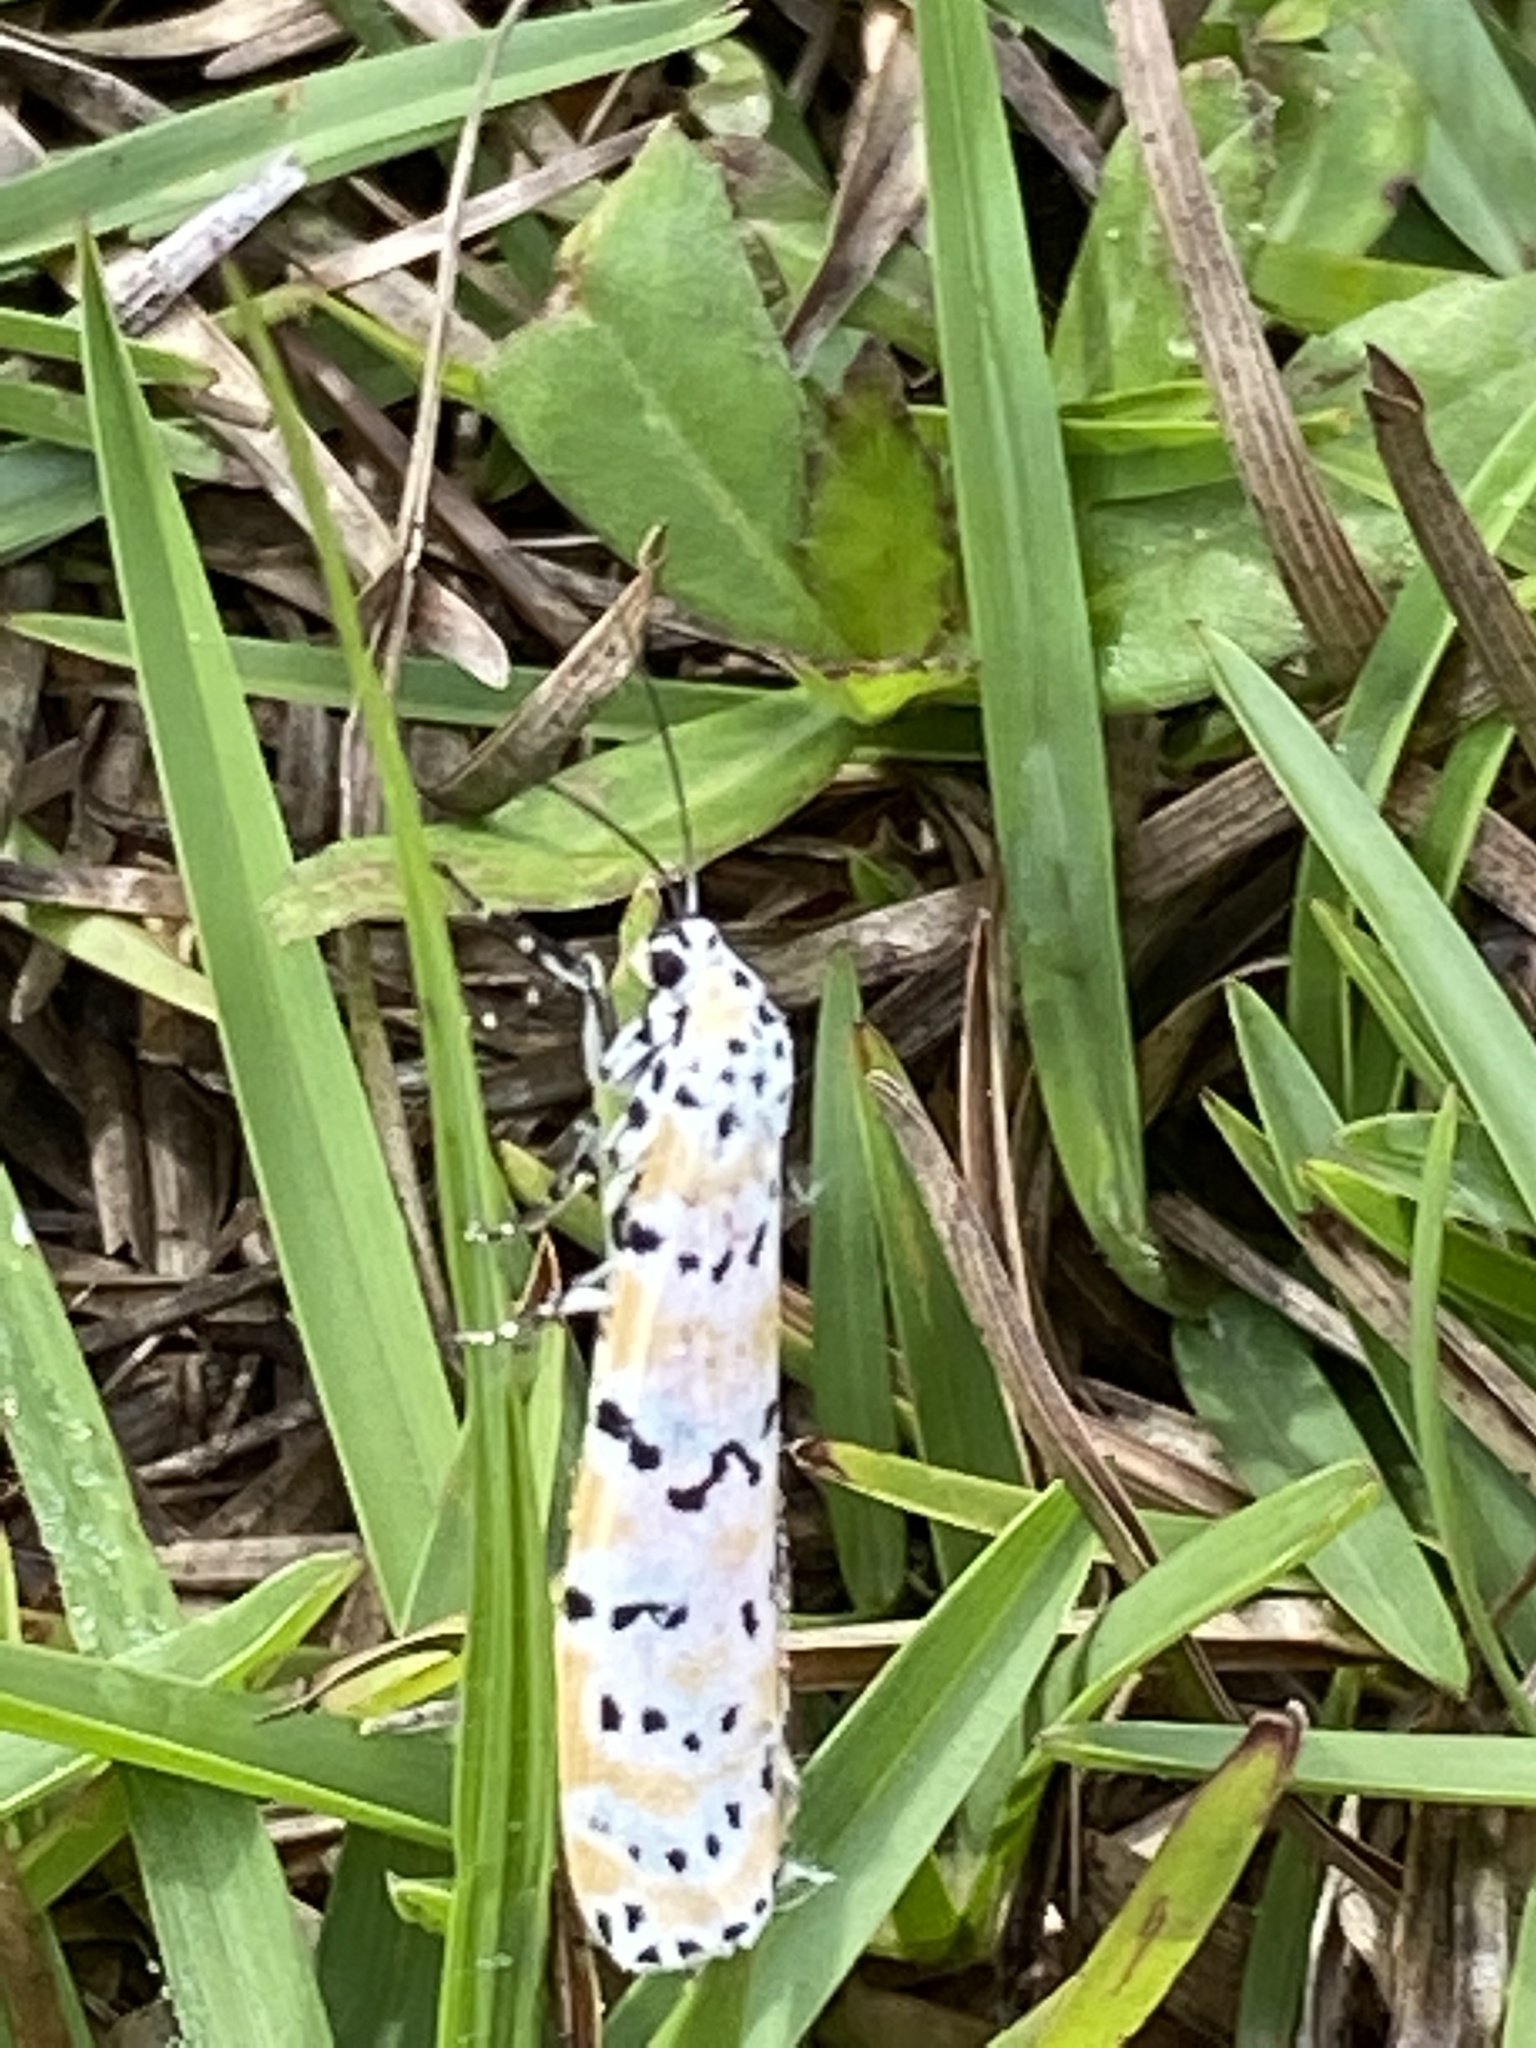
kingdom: Animalia
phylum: Arthropoda
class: Insecta
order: Lepidoptera
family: Erebidae
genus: Utetheisa
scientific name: Utetheisa ornatrix
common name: Beautiful utetheisa
